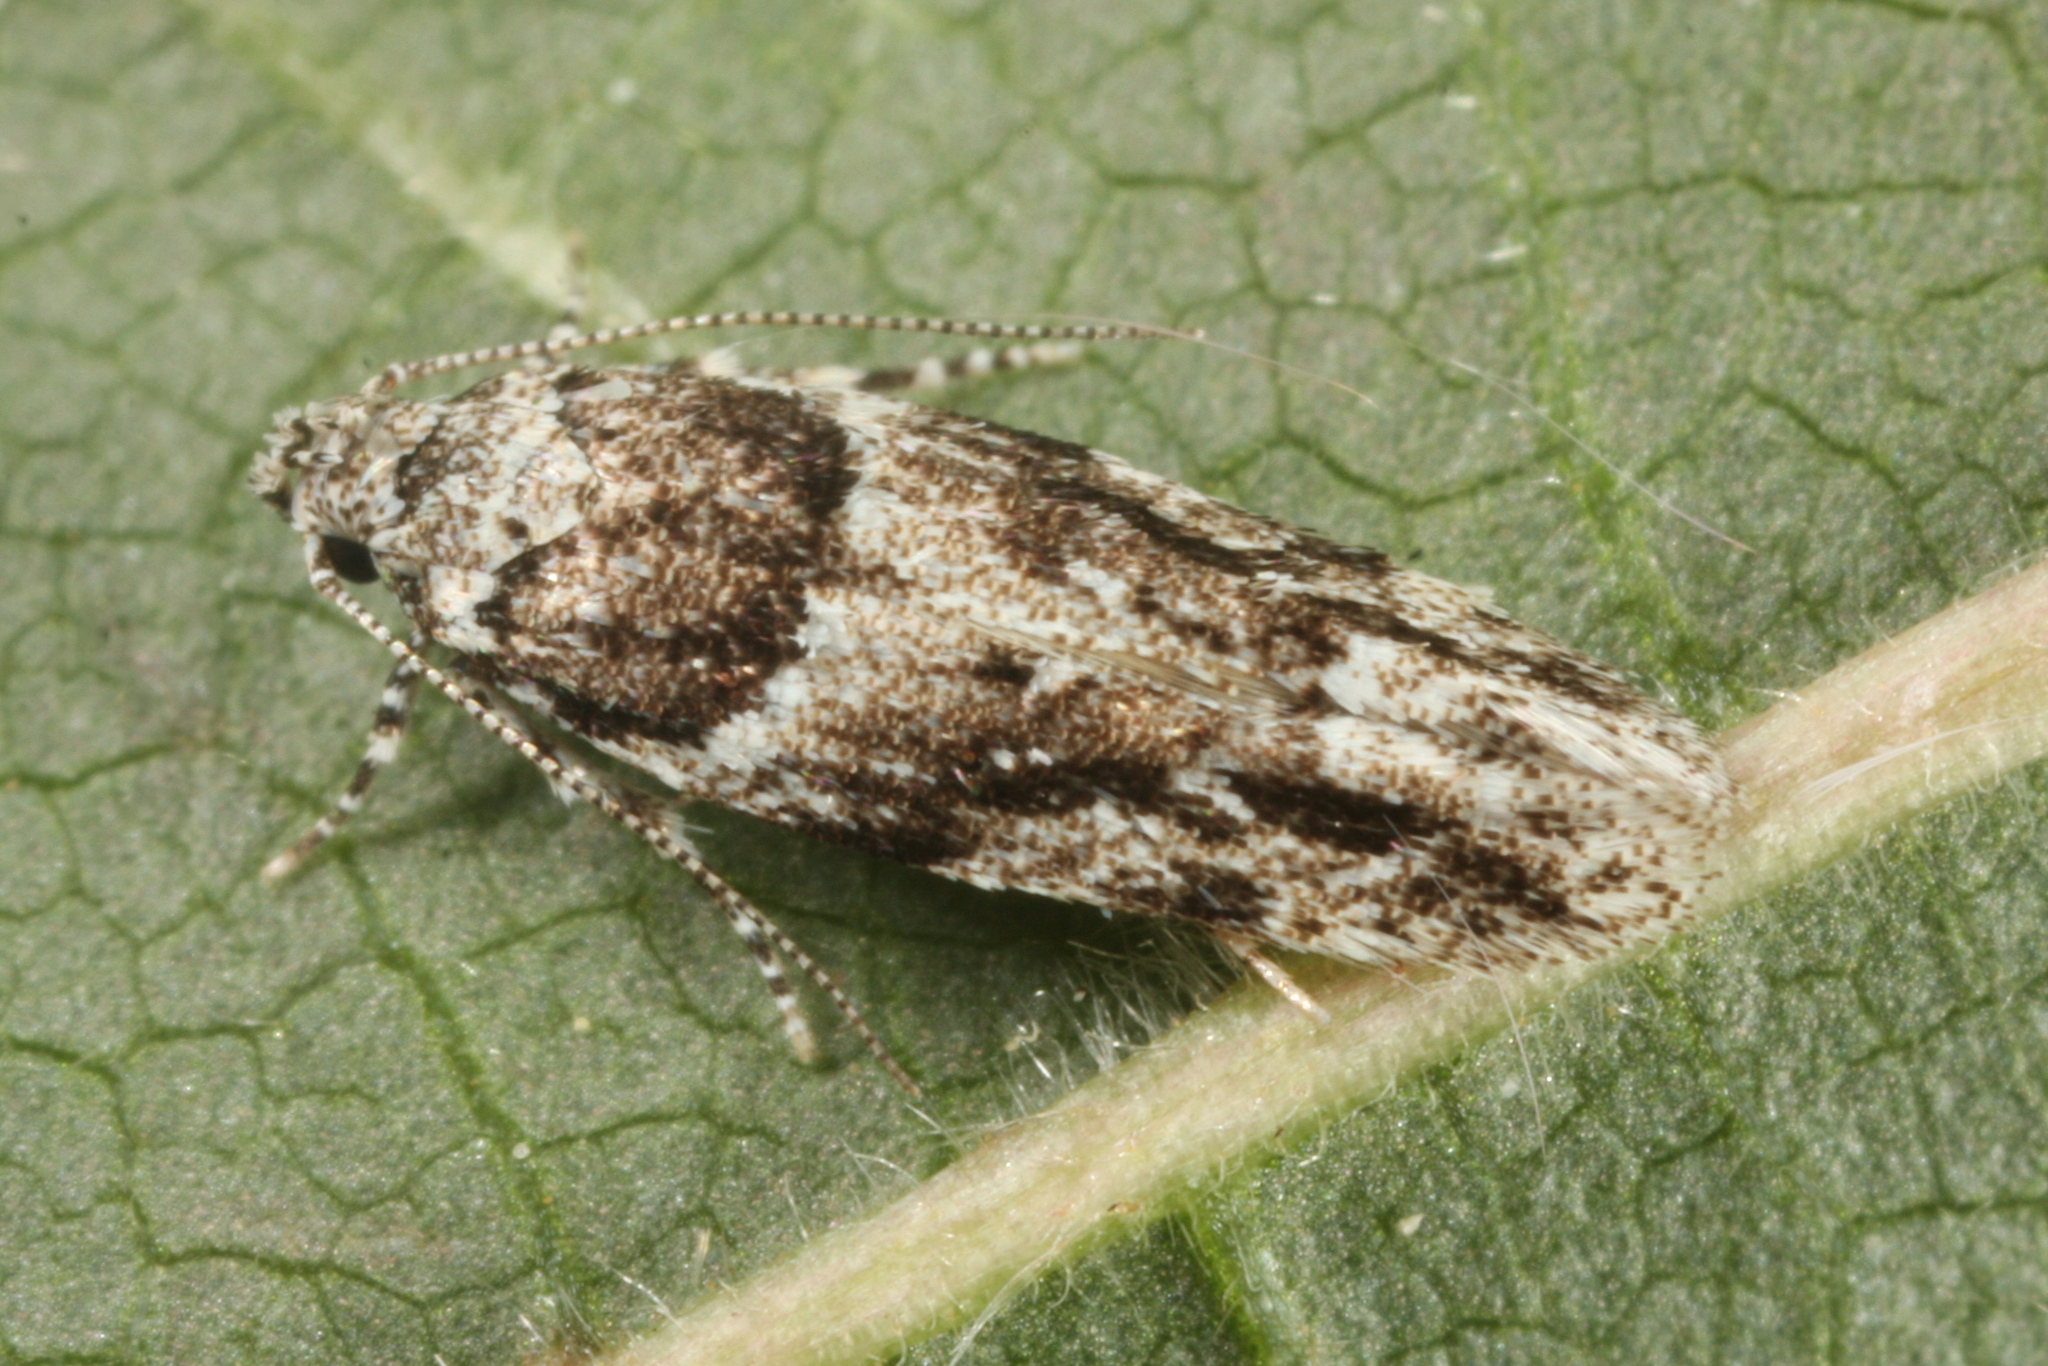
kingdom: Animalia
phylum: Arthropoda
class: Insecta
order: Lepidoptera
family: Gelechiidae
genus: Recurvaria
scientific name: Recurvaria nanella
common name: Gelechiid moth
